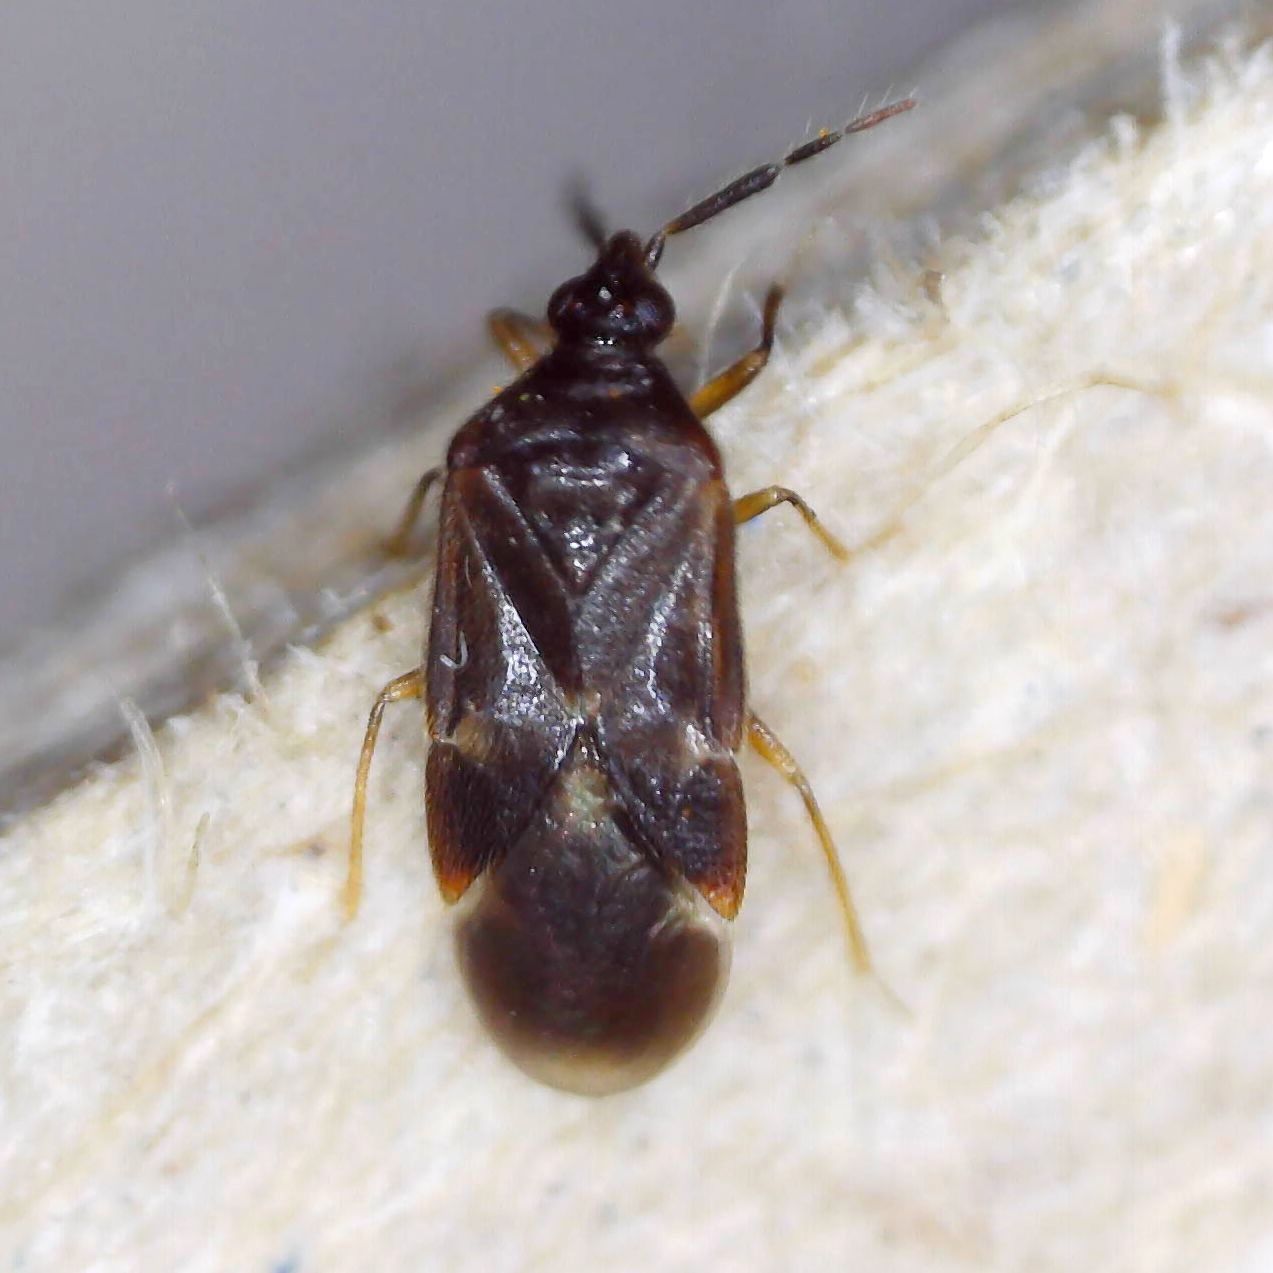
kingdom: Animalia
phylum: Arthropoda
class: Insecta
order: Hemiptera
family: Anthocoridae
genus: Buchananiella
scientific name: Buchananiella continua
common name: Pirate bug
